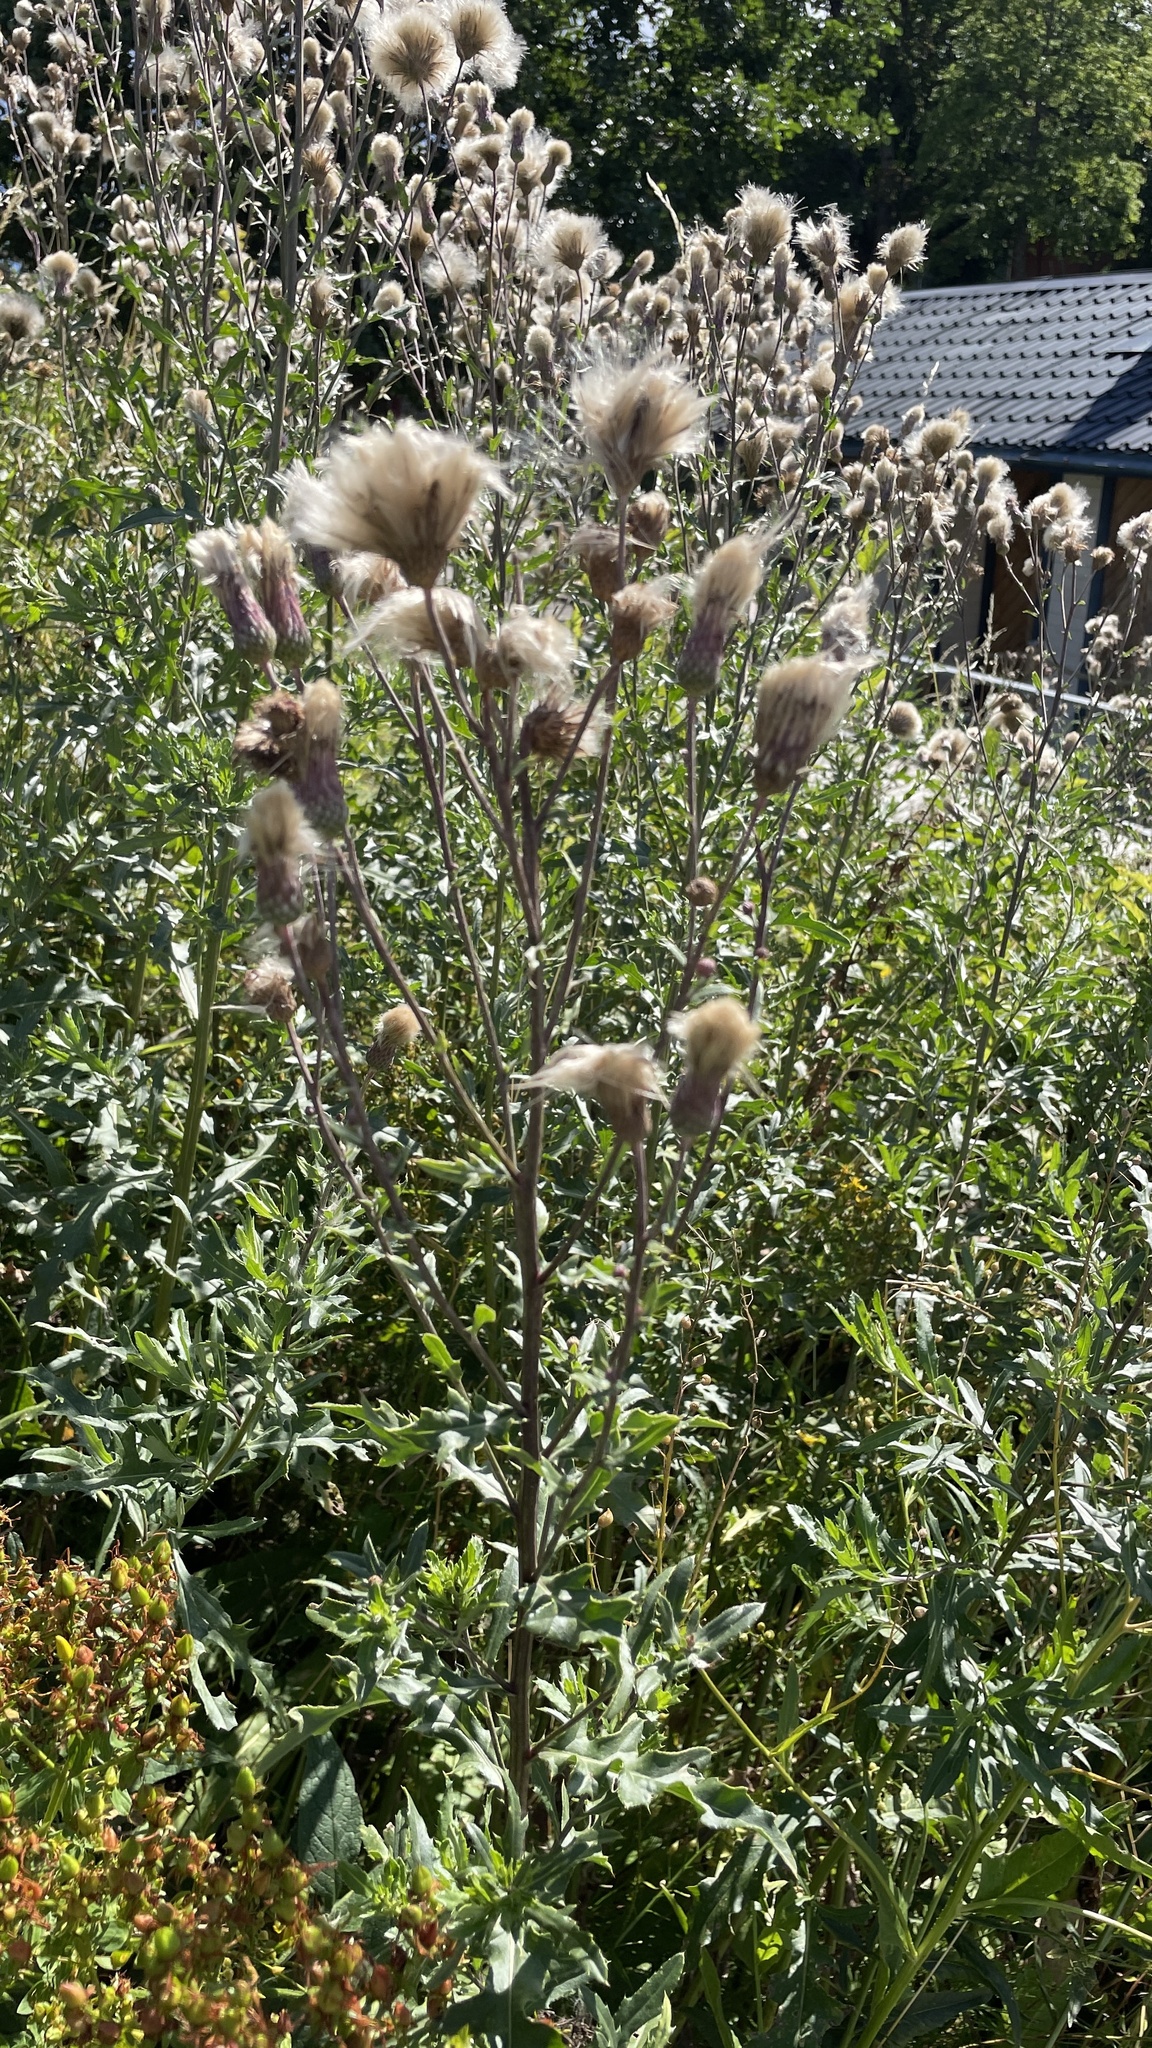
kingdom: Plantae
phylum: Tracheophyta
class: Magnoliopsida
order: Asterales
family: Asteraceae
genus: Cirsium
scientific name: Cirsium arvense
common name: Creeping thistle
